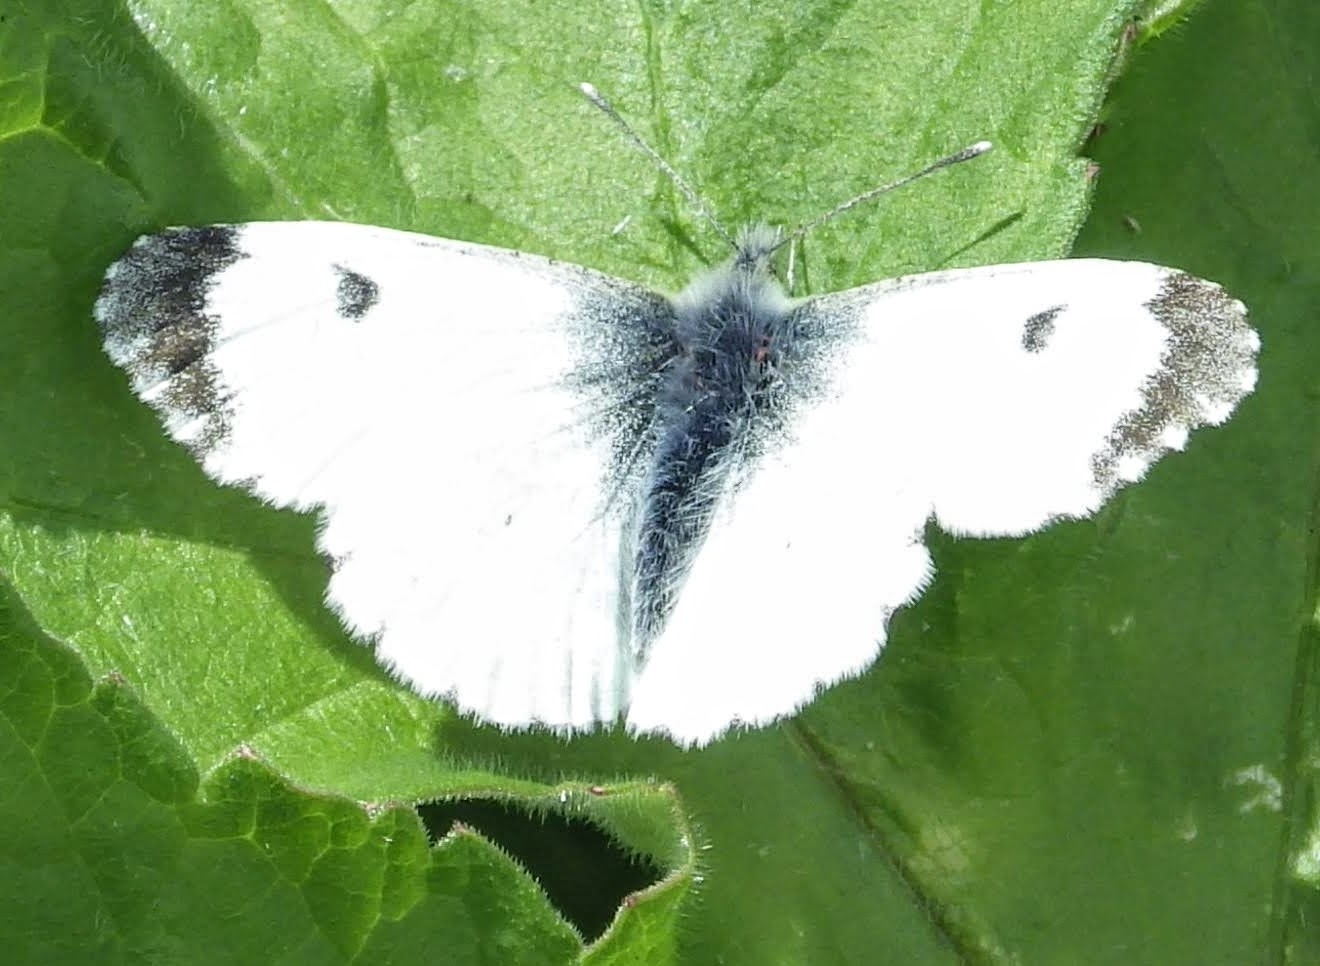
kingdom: Animalia
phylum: Arthropoda
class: Insecta
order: Lepidoptera
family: Pieridae
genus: Anthocharis
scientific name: Anthocharis cardamines
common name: Orange-tip
